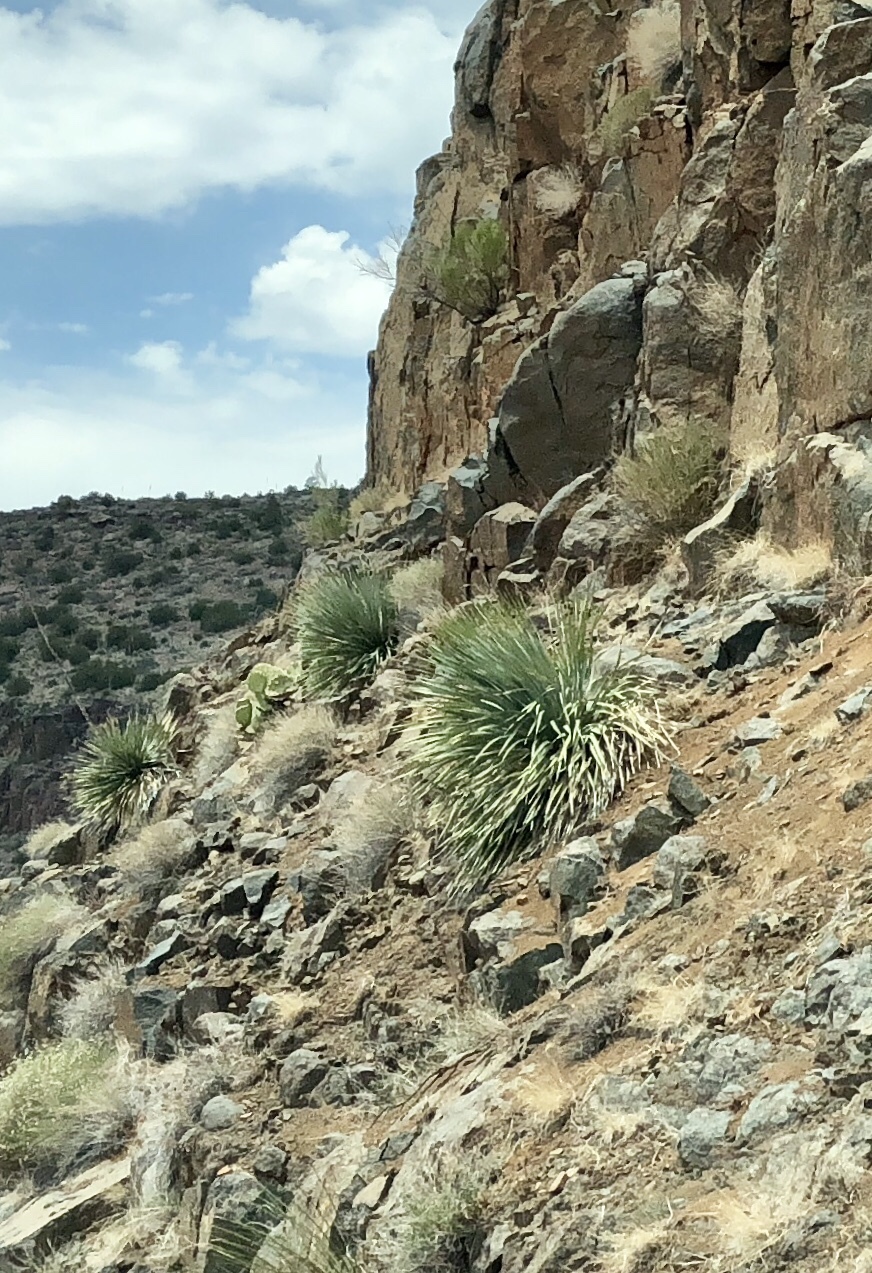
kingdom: Plantae
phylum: Tracheophyta
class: Liliopsida
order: Asparagales
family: Asparagaceae
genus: Dasylirion
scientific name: Dasylirion wheeleri
